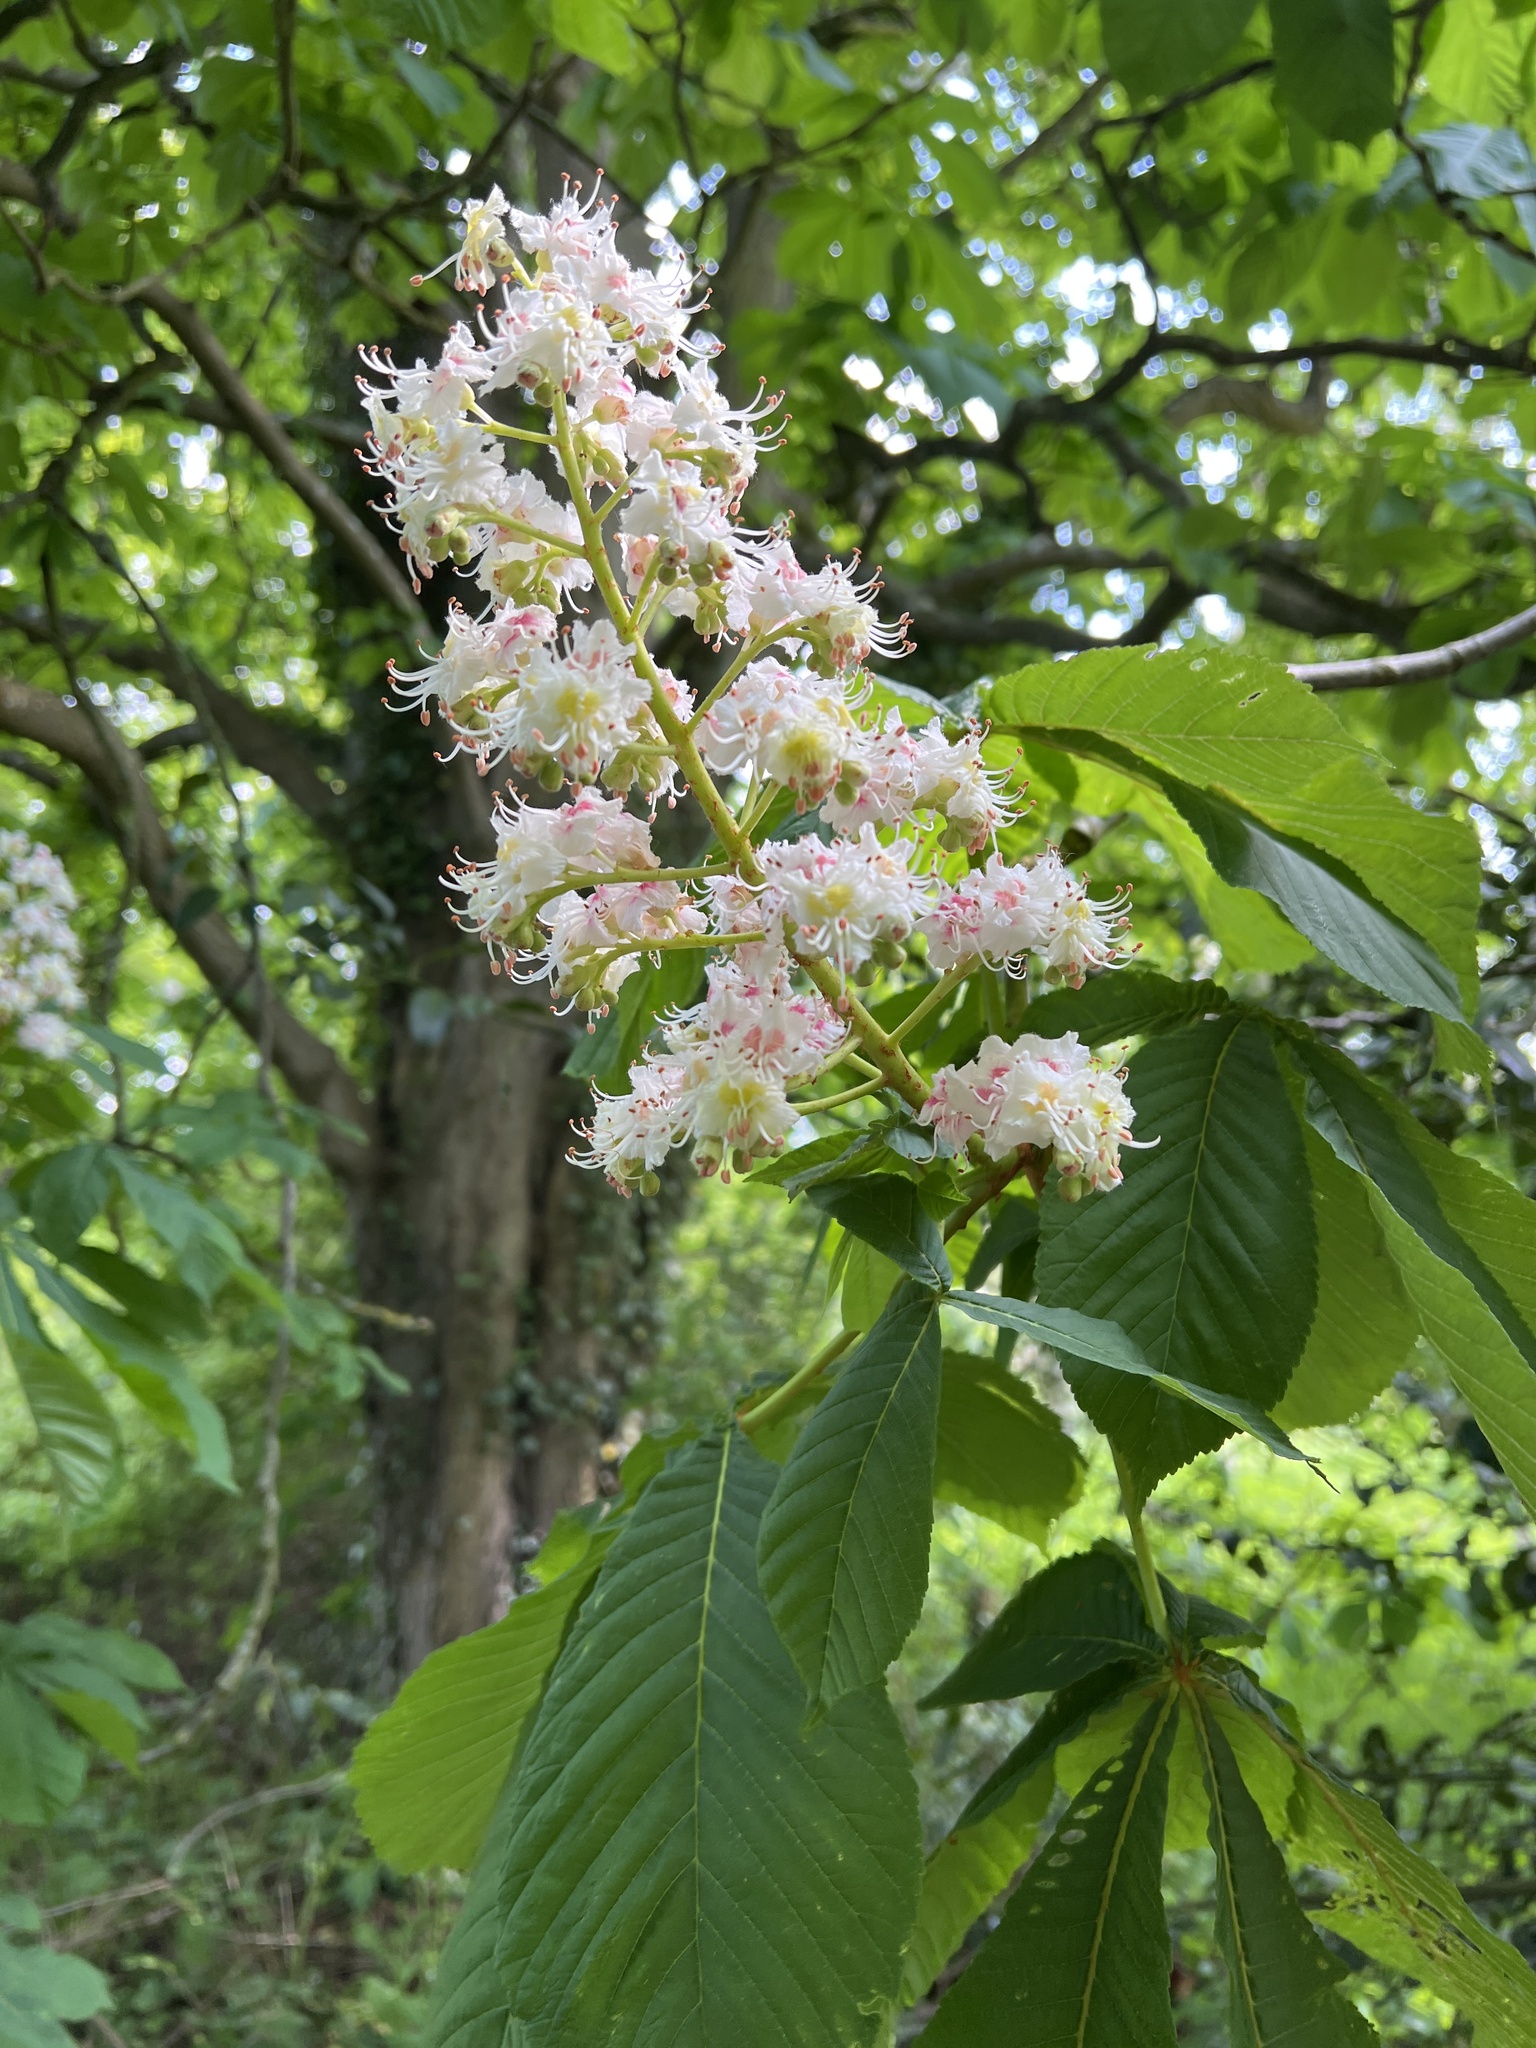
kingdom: Plantae
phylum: Tracheophyta
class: Magnoliopsida
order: Sapindales
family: Sapindaceae
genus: Aesculus
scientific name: Aesculus hippocastanum
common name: Horse-chestnut
